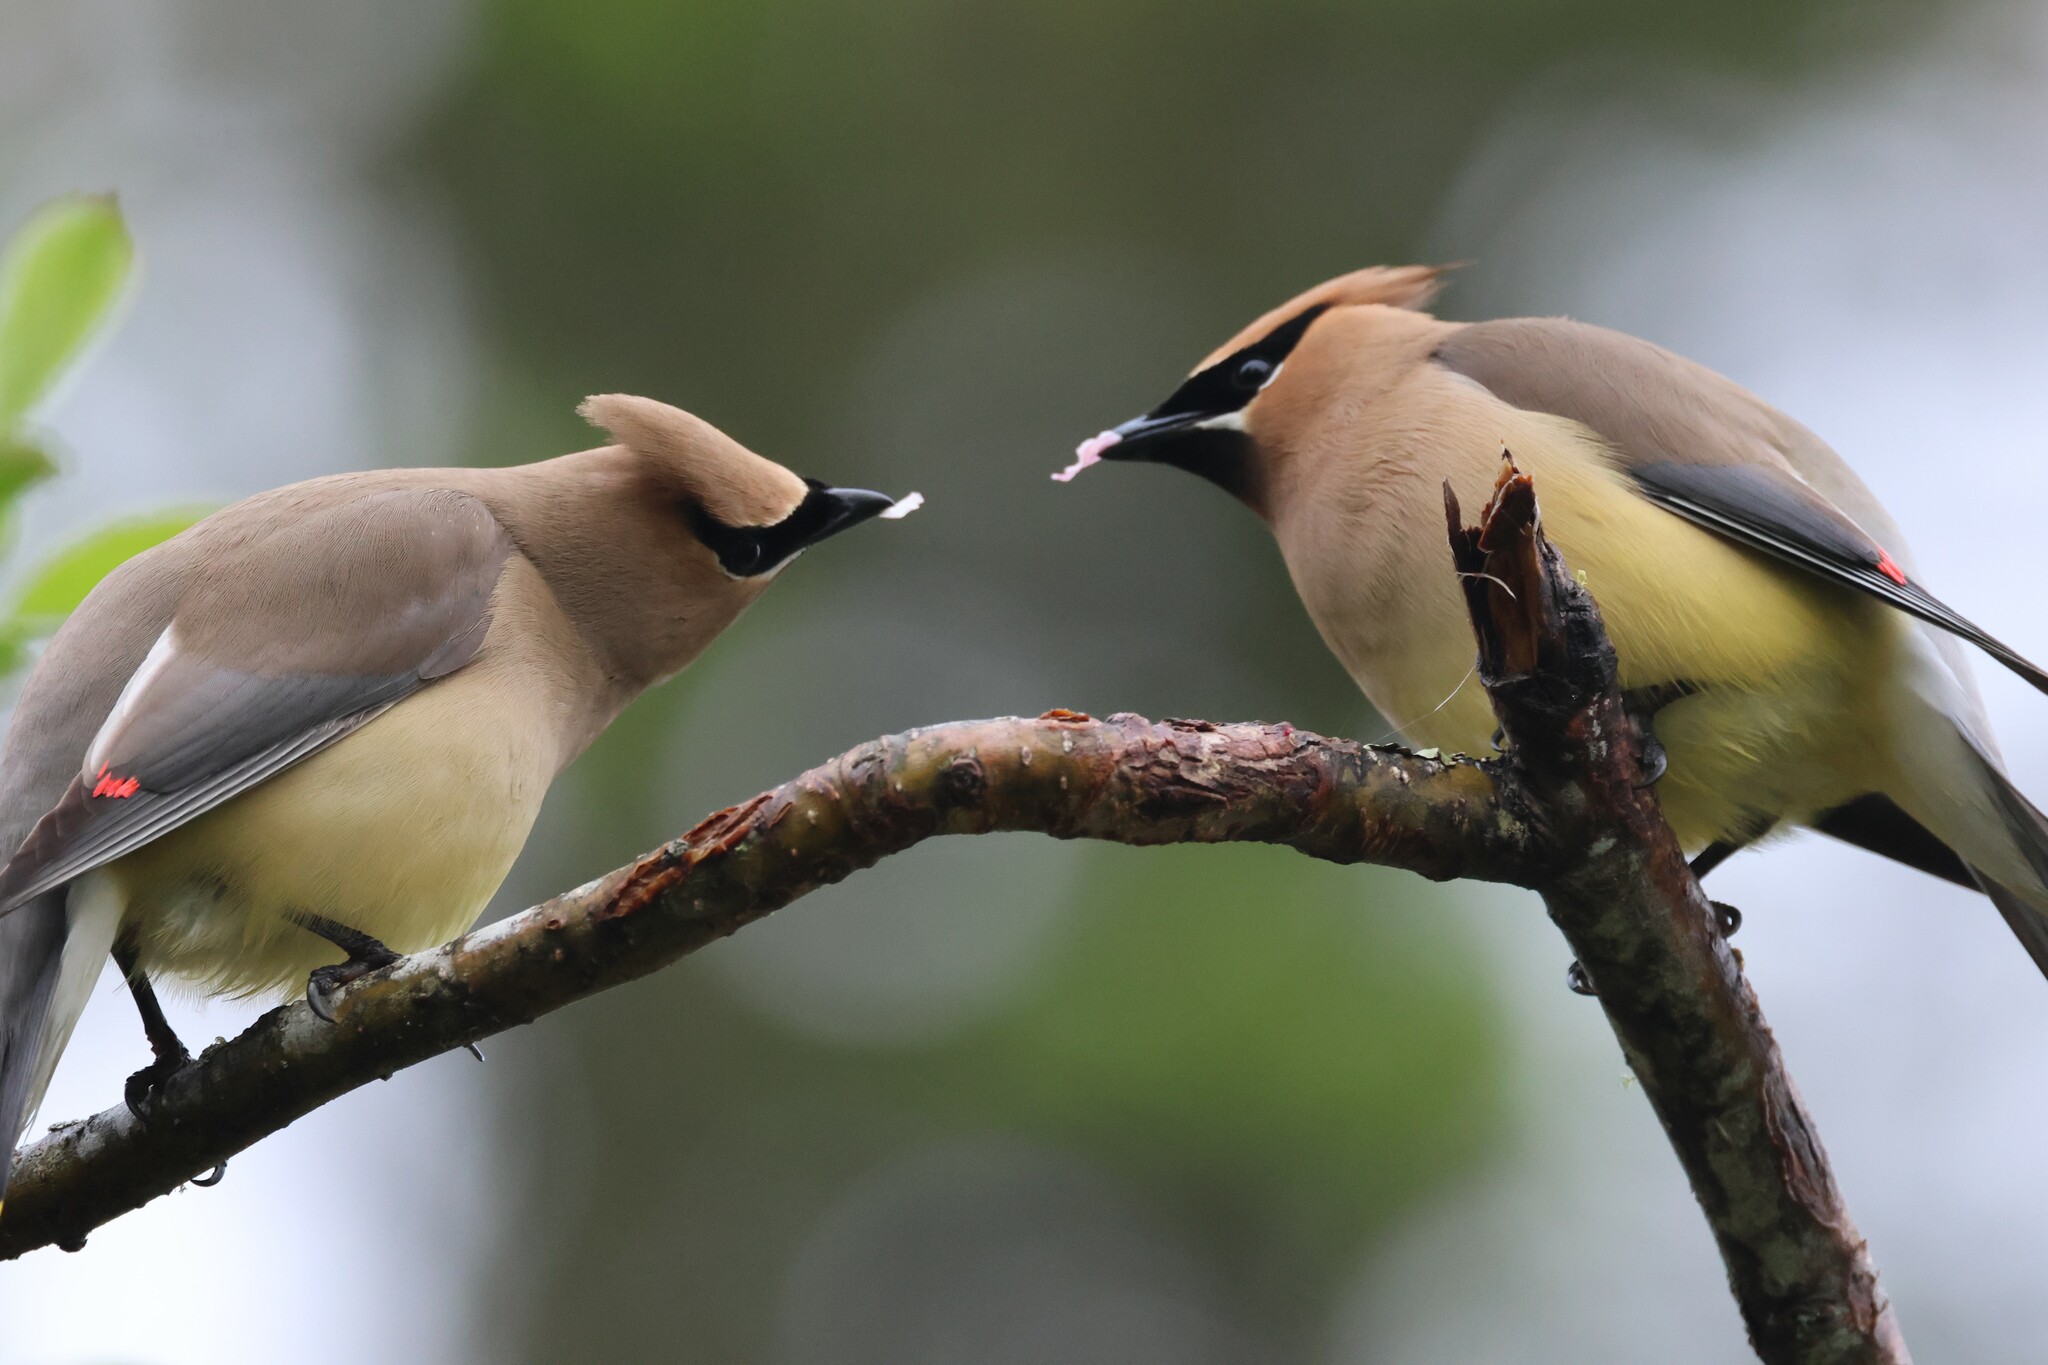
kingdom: Animalia
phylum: Chordata
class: Aves
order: Passeriformes
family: Bombycillidae
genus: Bombycilla
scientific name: Bombycilla cedrorum
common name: Cedar waxwing
